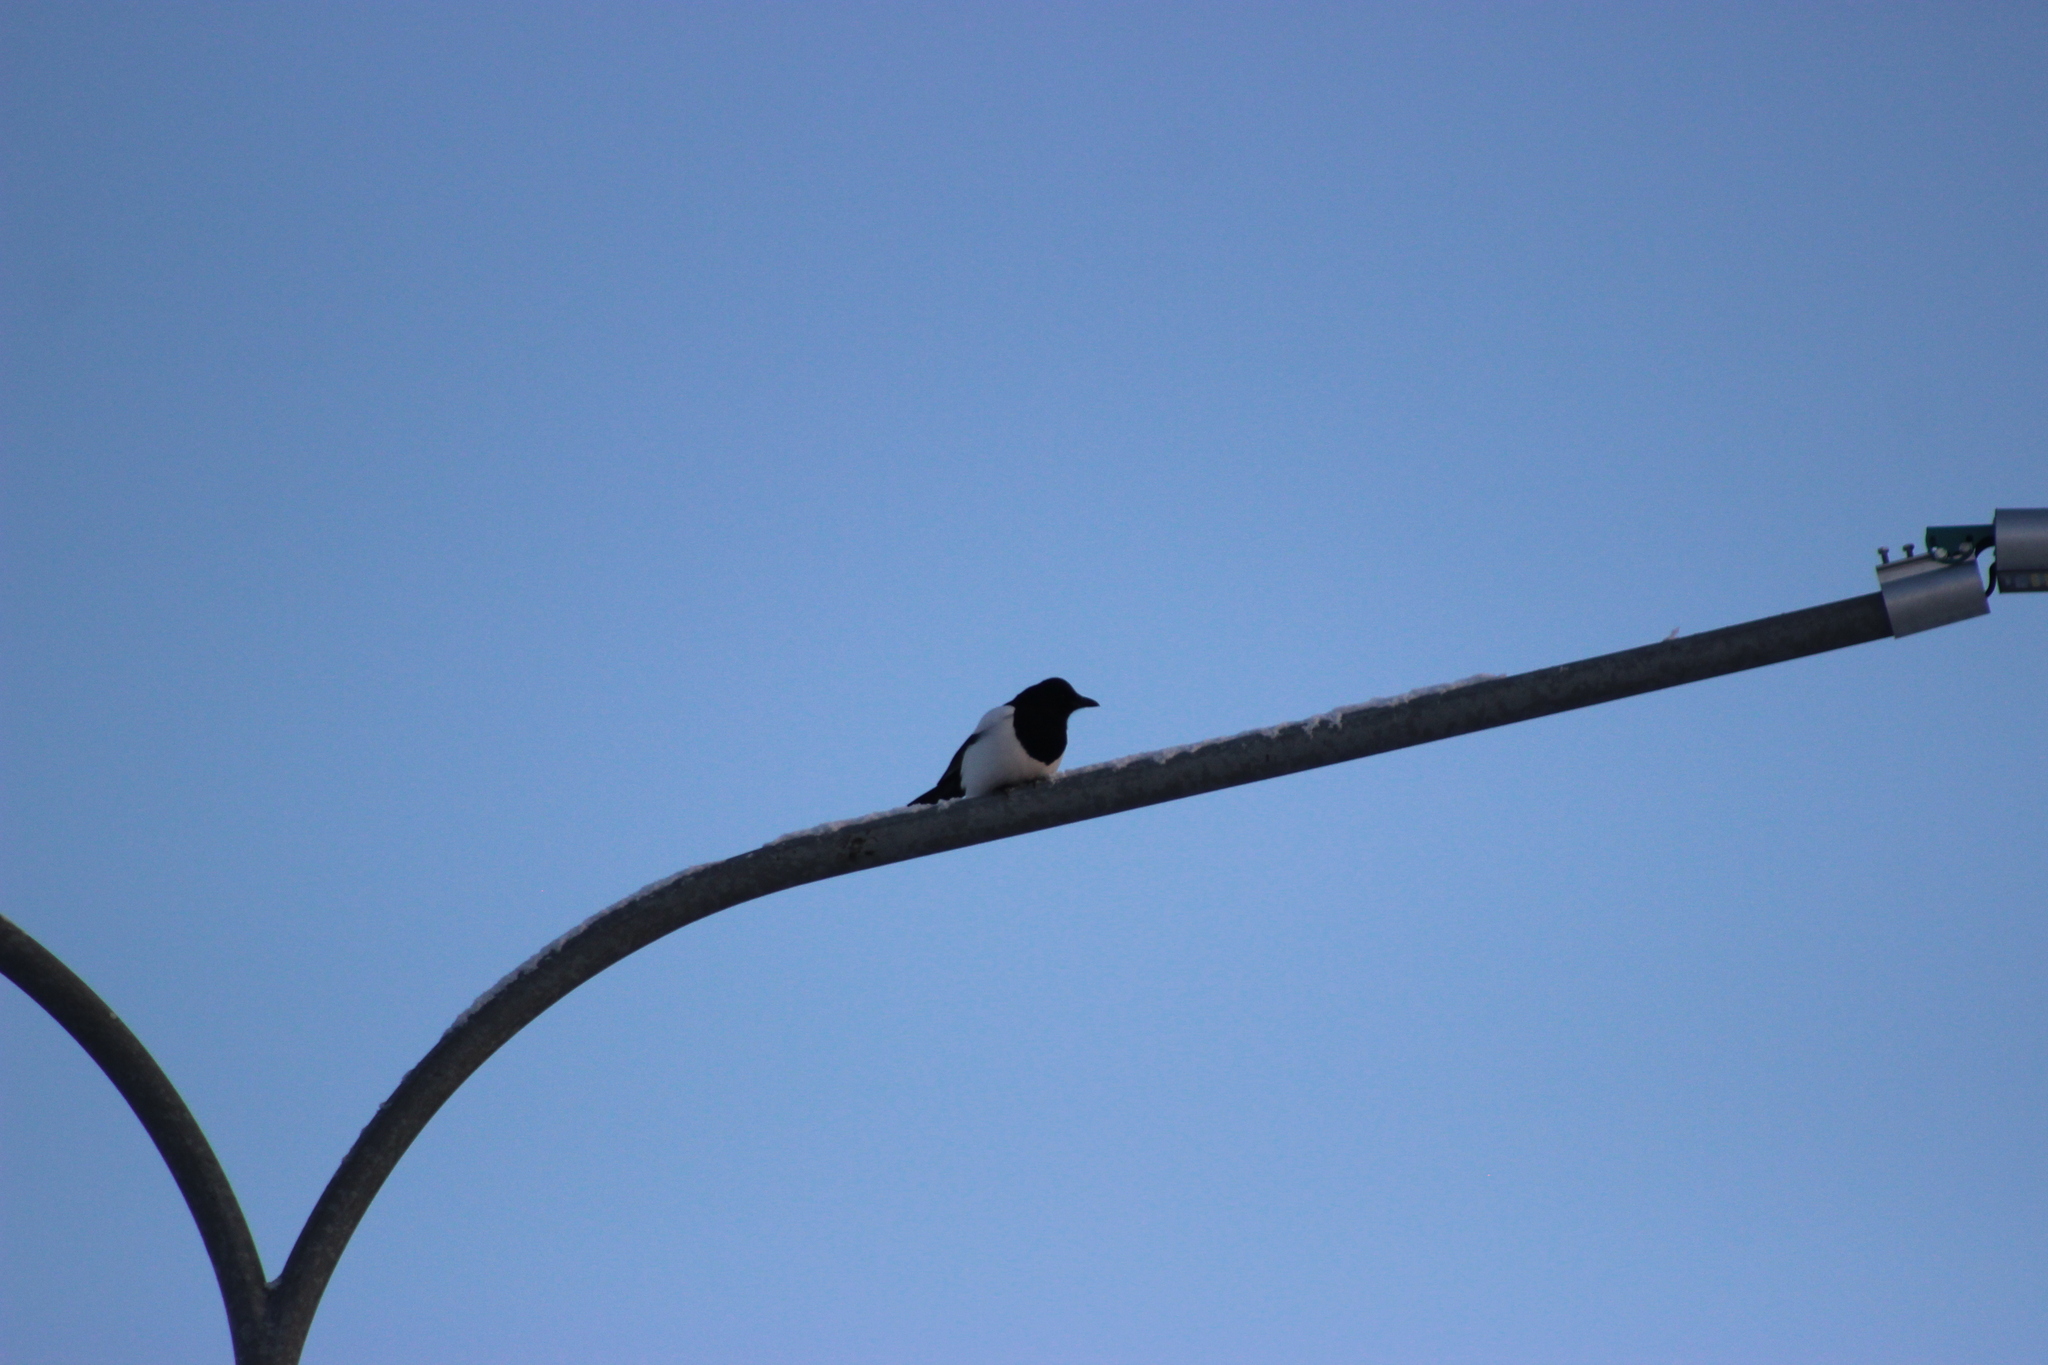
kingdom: Animalia
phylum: Chordata
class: Aves
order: Passeriformes
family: Corvidae
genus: Pica
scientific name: Pica pica
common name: Eurasian magpie
